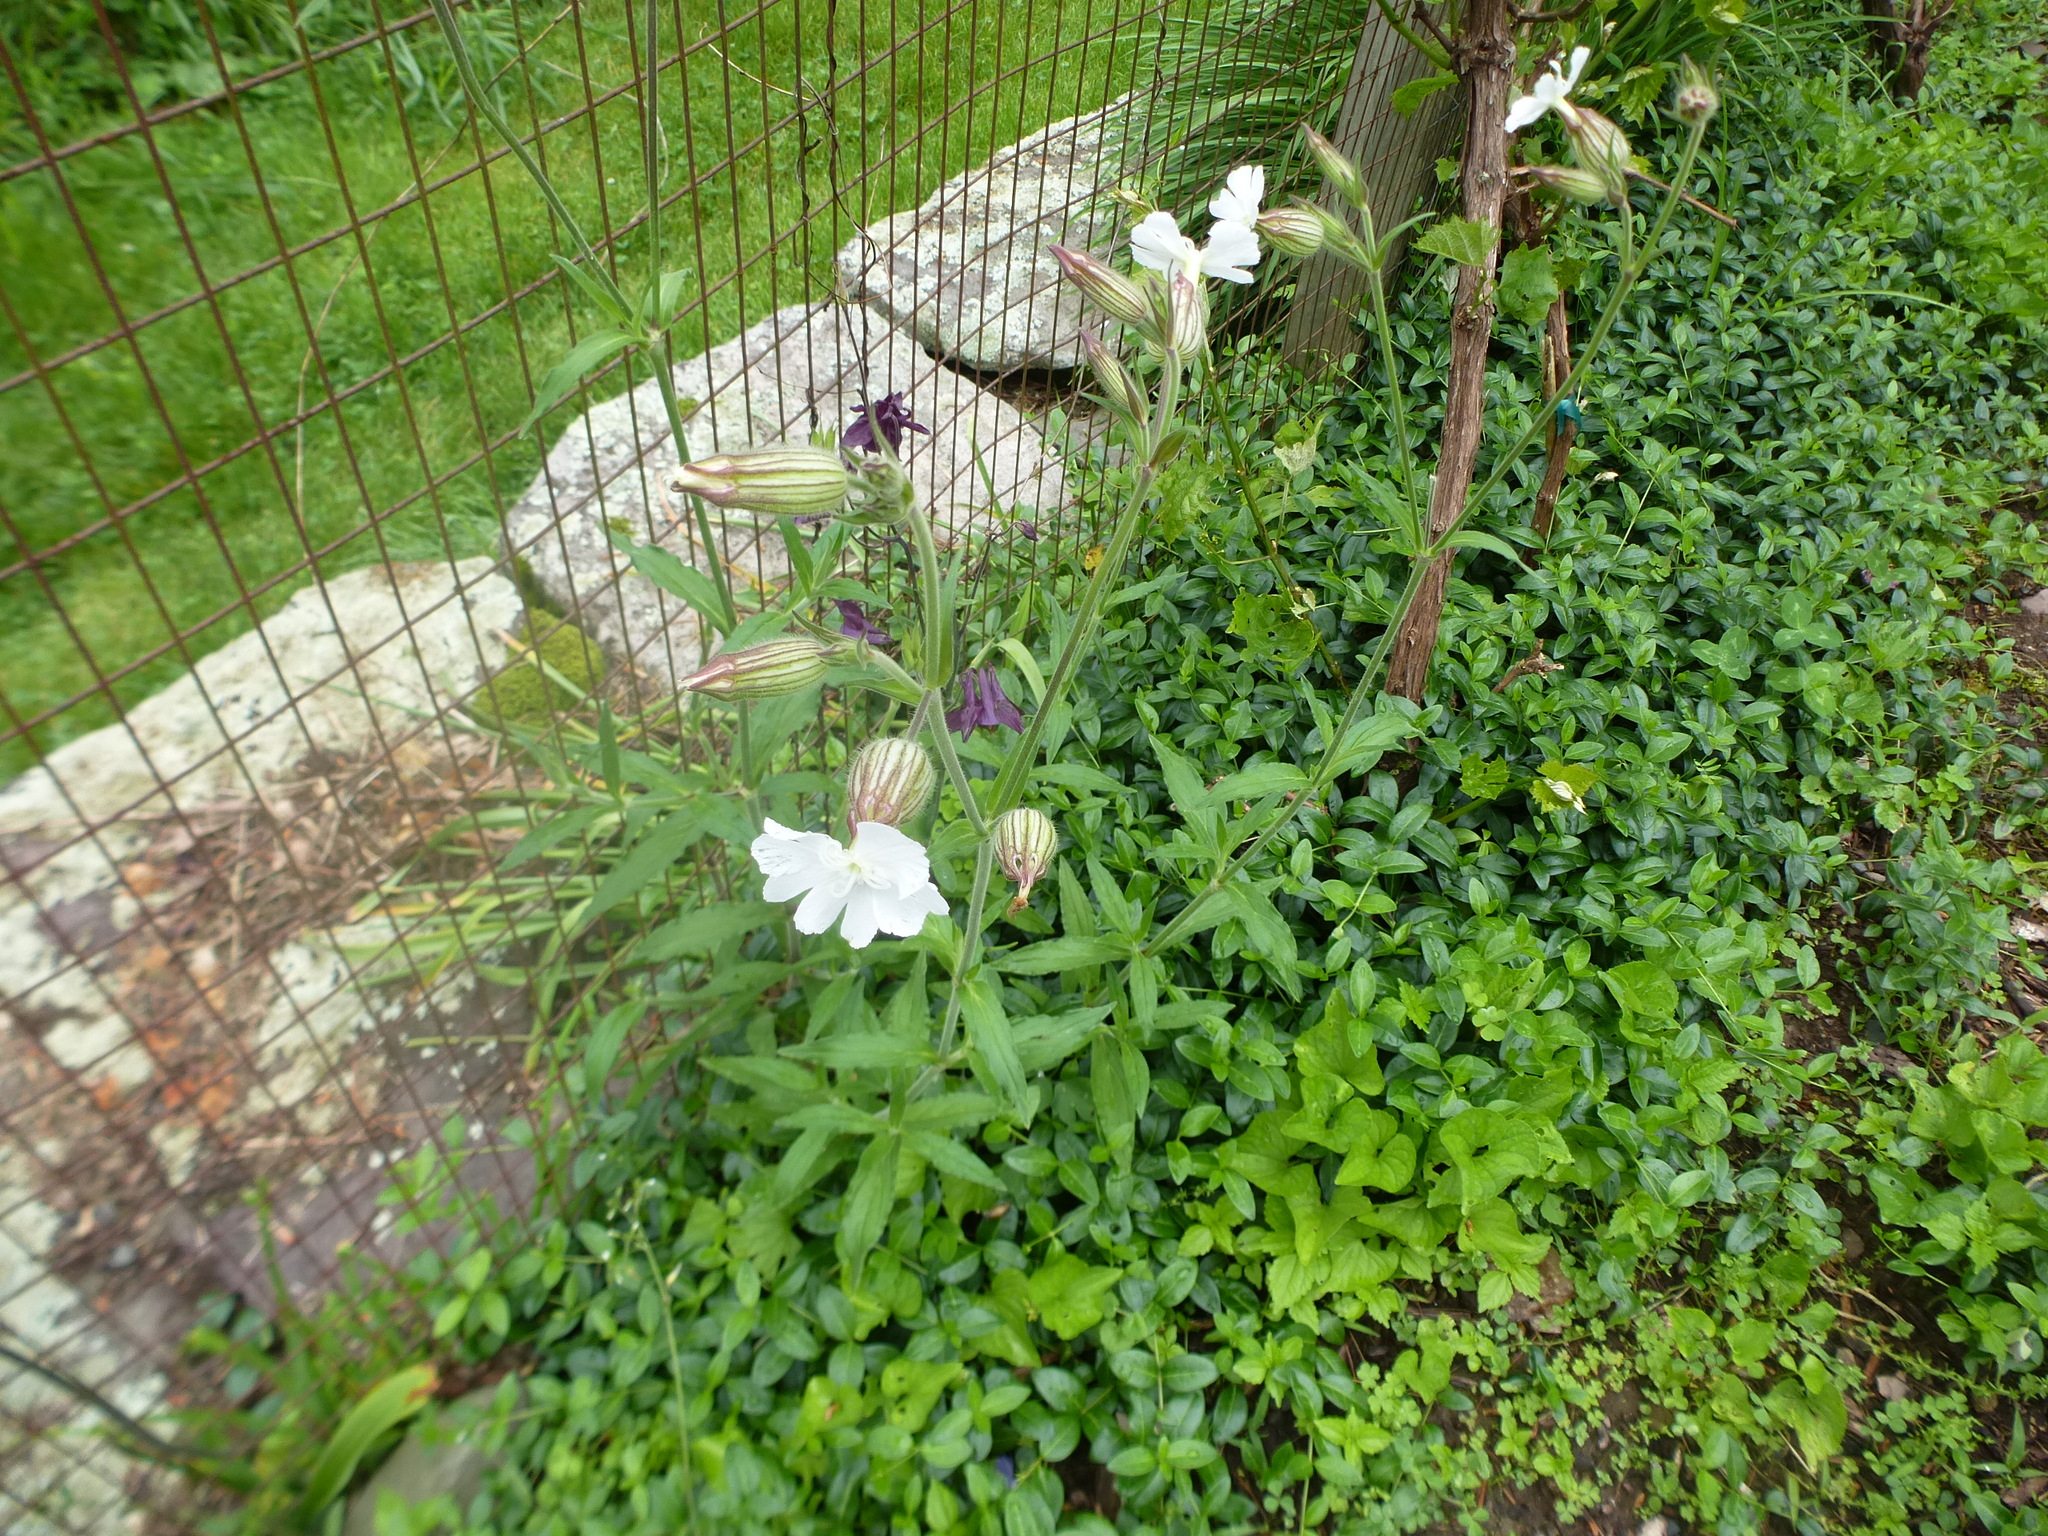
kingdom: Plantae
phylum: Tracheophyta
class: Magnoliopsida
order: Caryophyllales
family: Caryophyllaceae
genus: Silene
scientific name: Silene latifolia
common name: White campion
